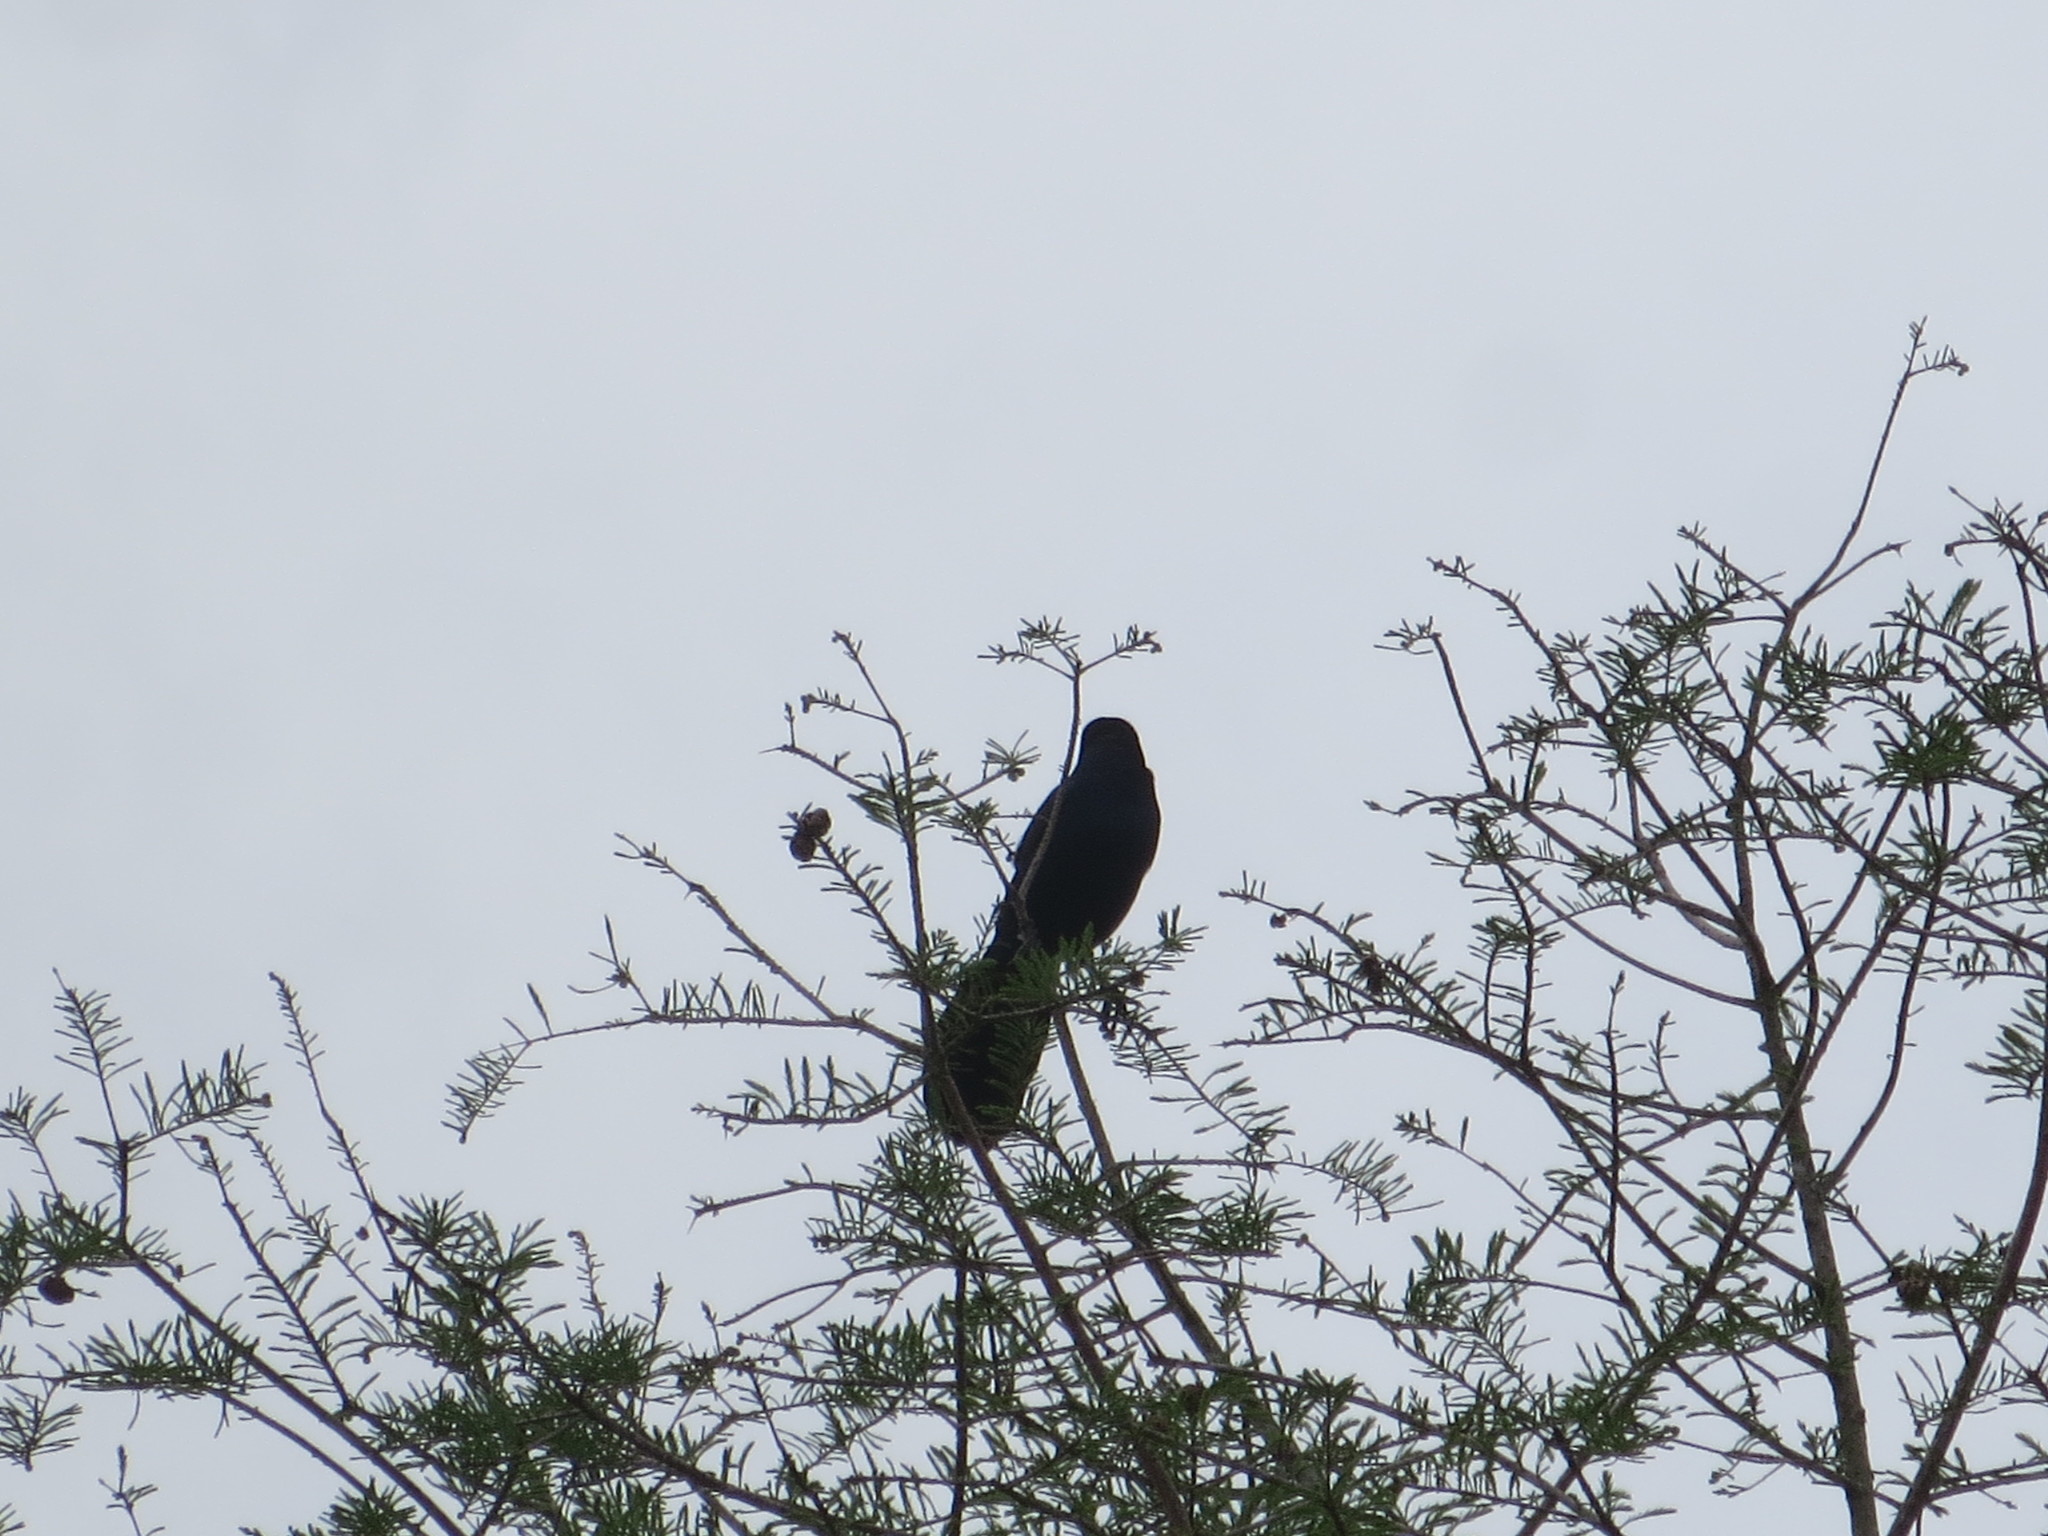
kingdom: Animalia
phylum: Chordata
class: Aves
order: Passeriformes
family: Icteridae
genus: Quiscalus
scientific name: Quiscalus major
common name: Boat-tailed grackle
